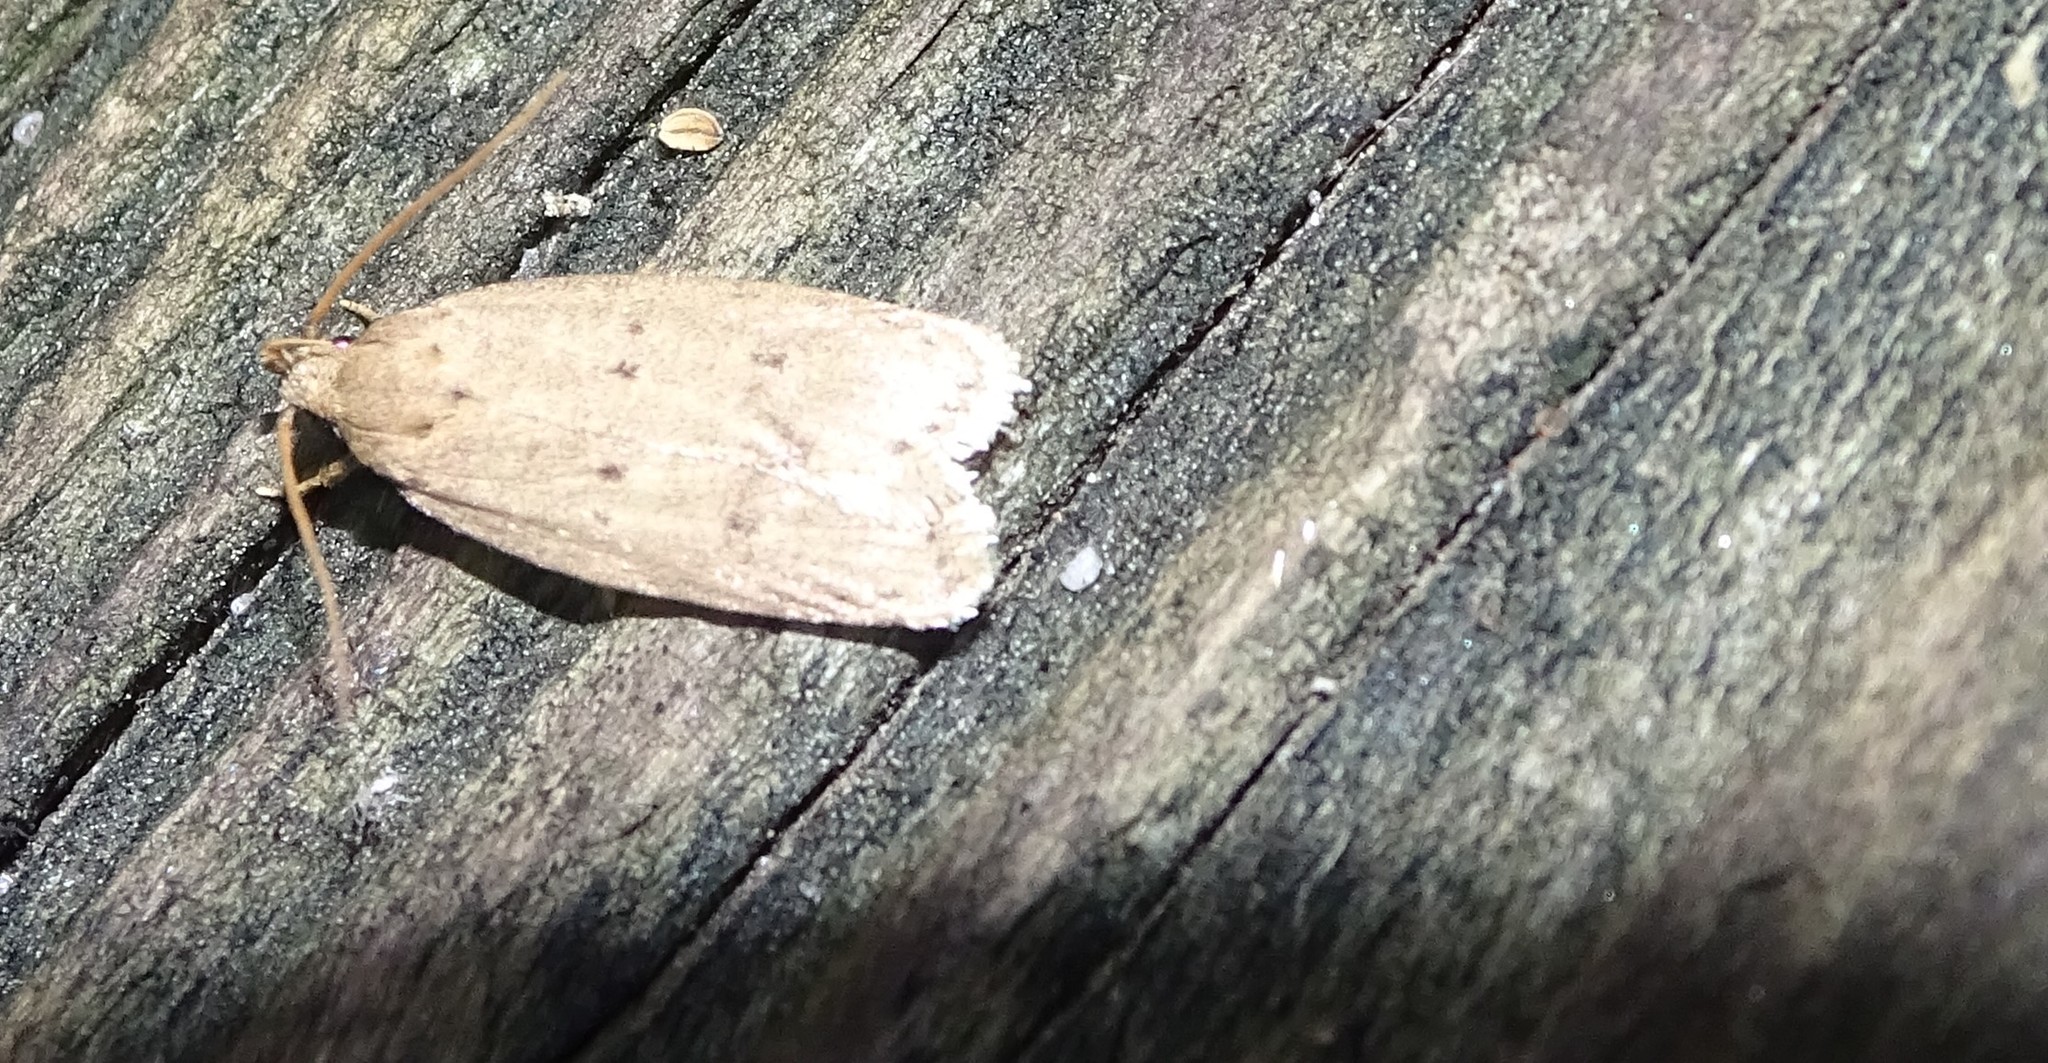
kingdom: Animalia
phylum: Arthropoda
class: Insecta
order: Lepidoptera
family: Autostichidae
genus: Autosticha
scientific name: Autosticha kyotensis
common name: Kyoto moth
